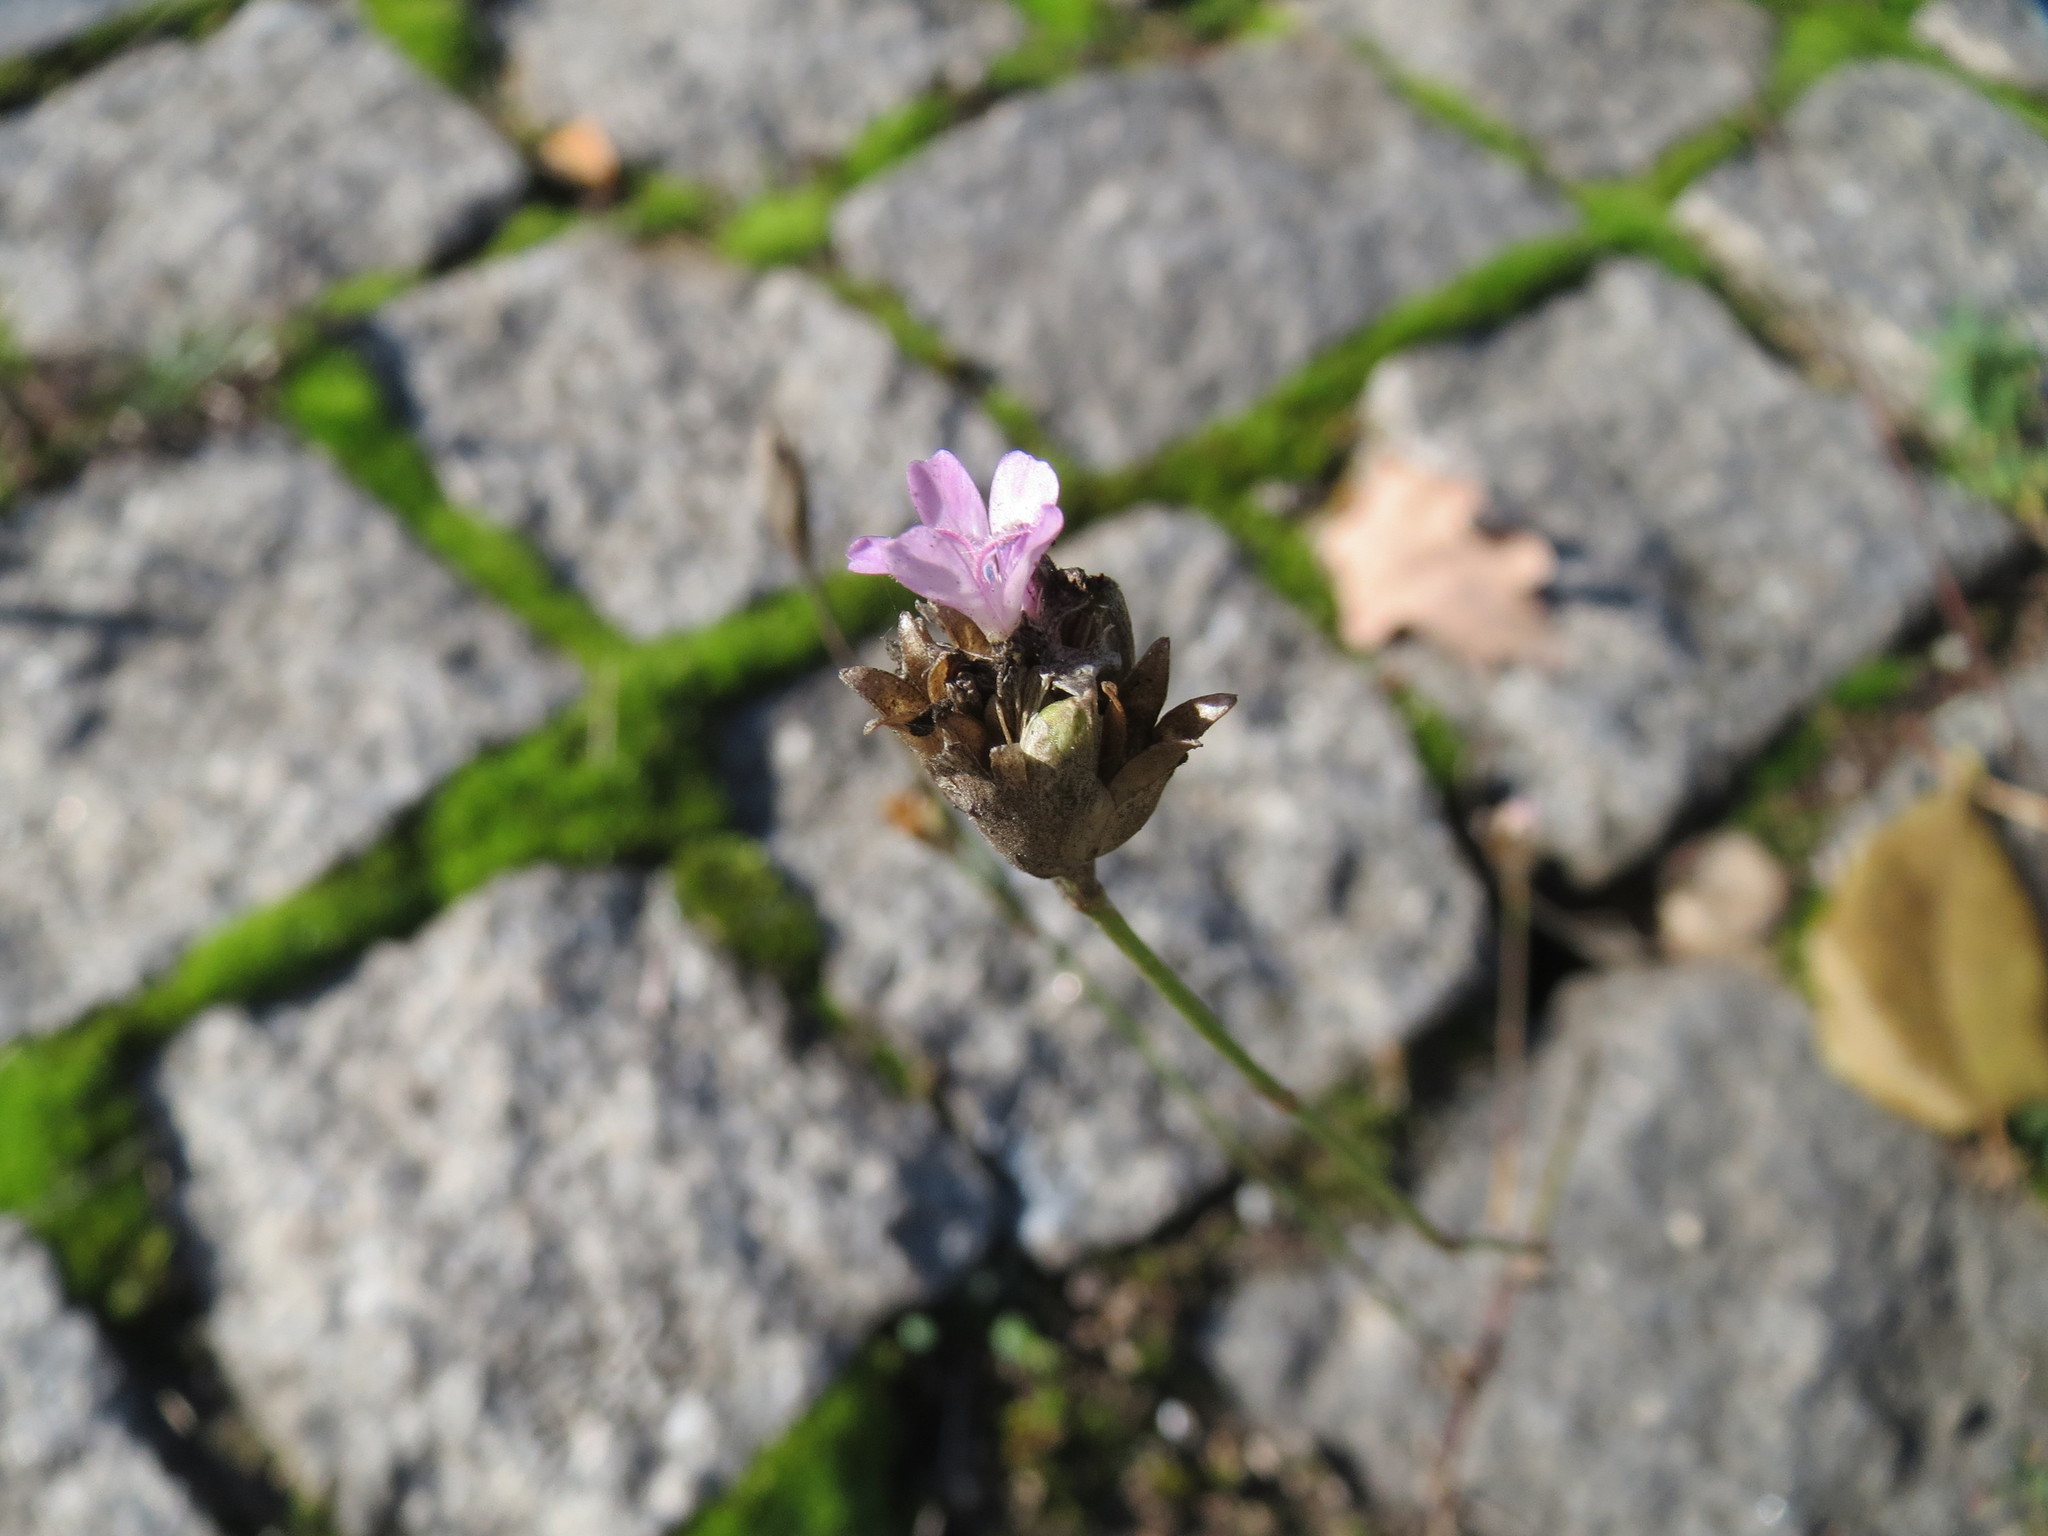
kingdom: Plantae
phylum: Tracheophyta
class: Magnoliopsida
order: Caryophyllales
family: Caryophyllaceae
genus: Petrorhagia
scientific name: Petrorhagia prolifera
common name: Proliferous pink
